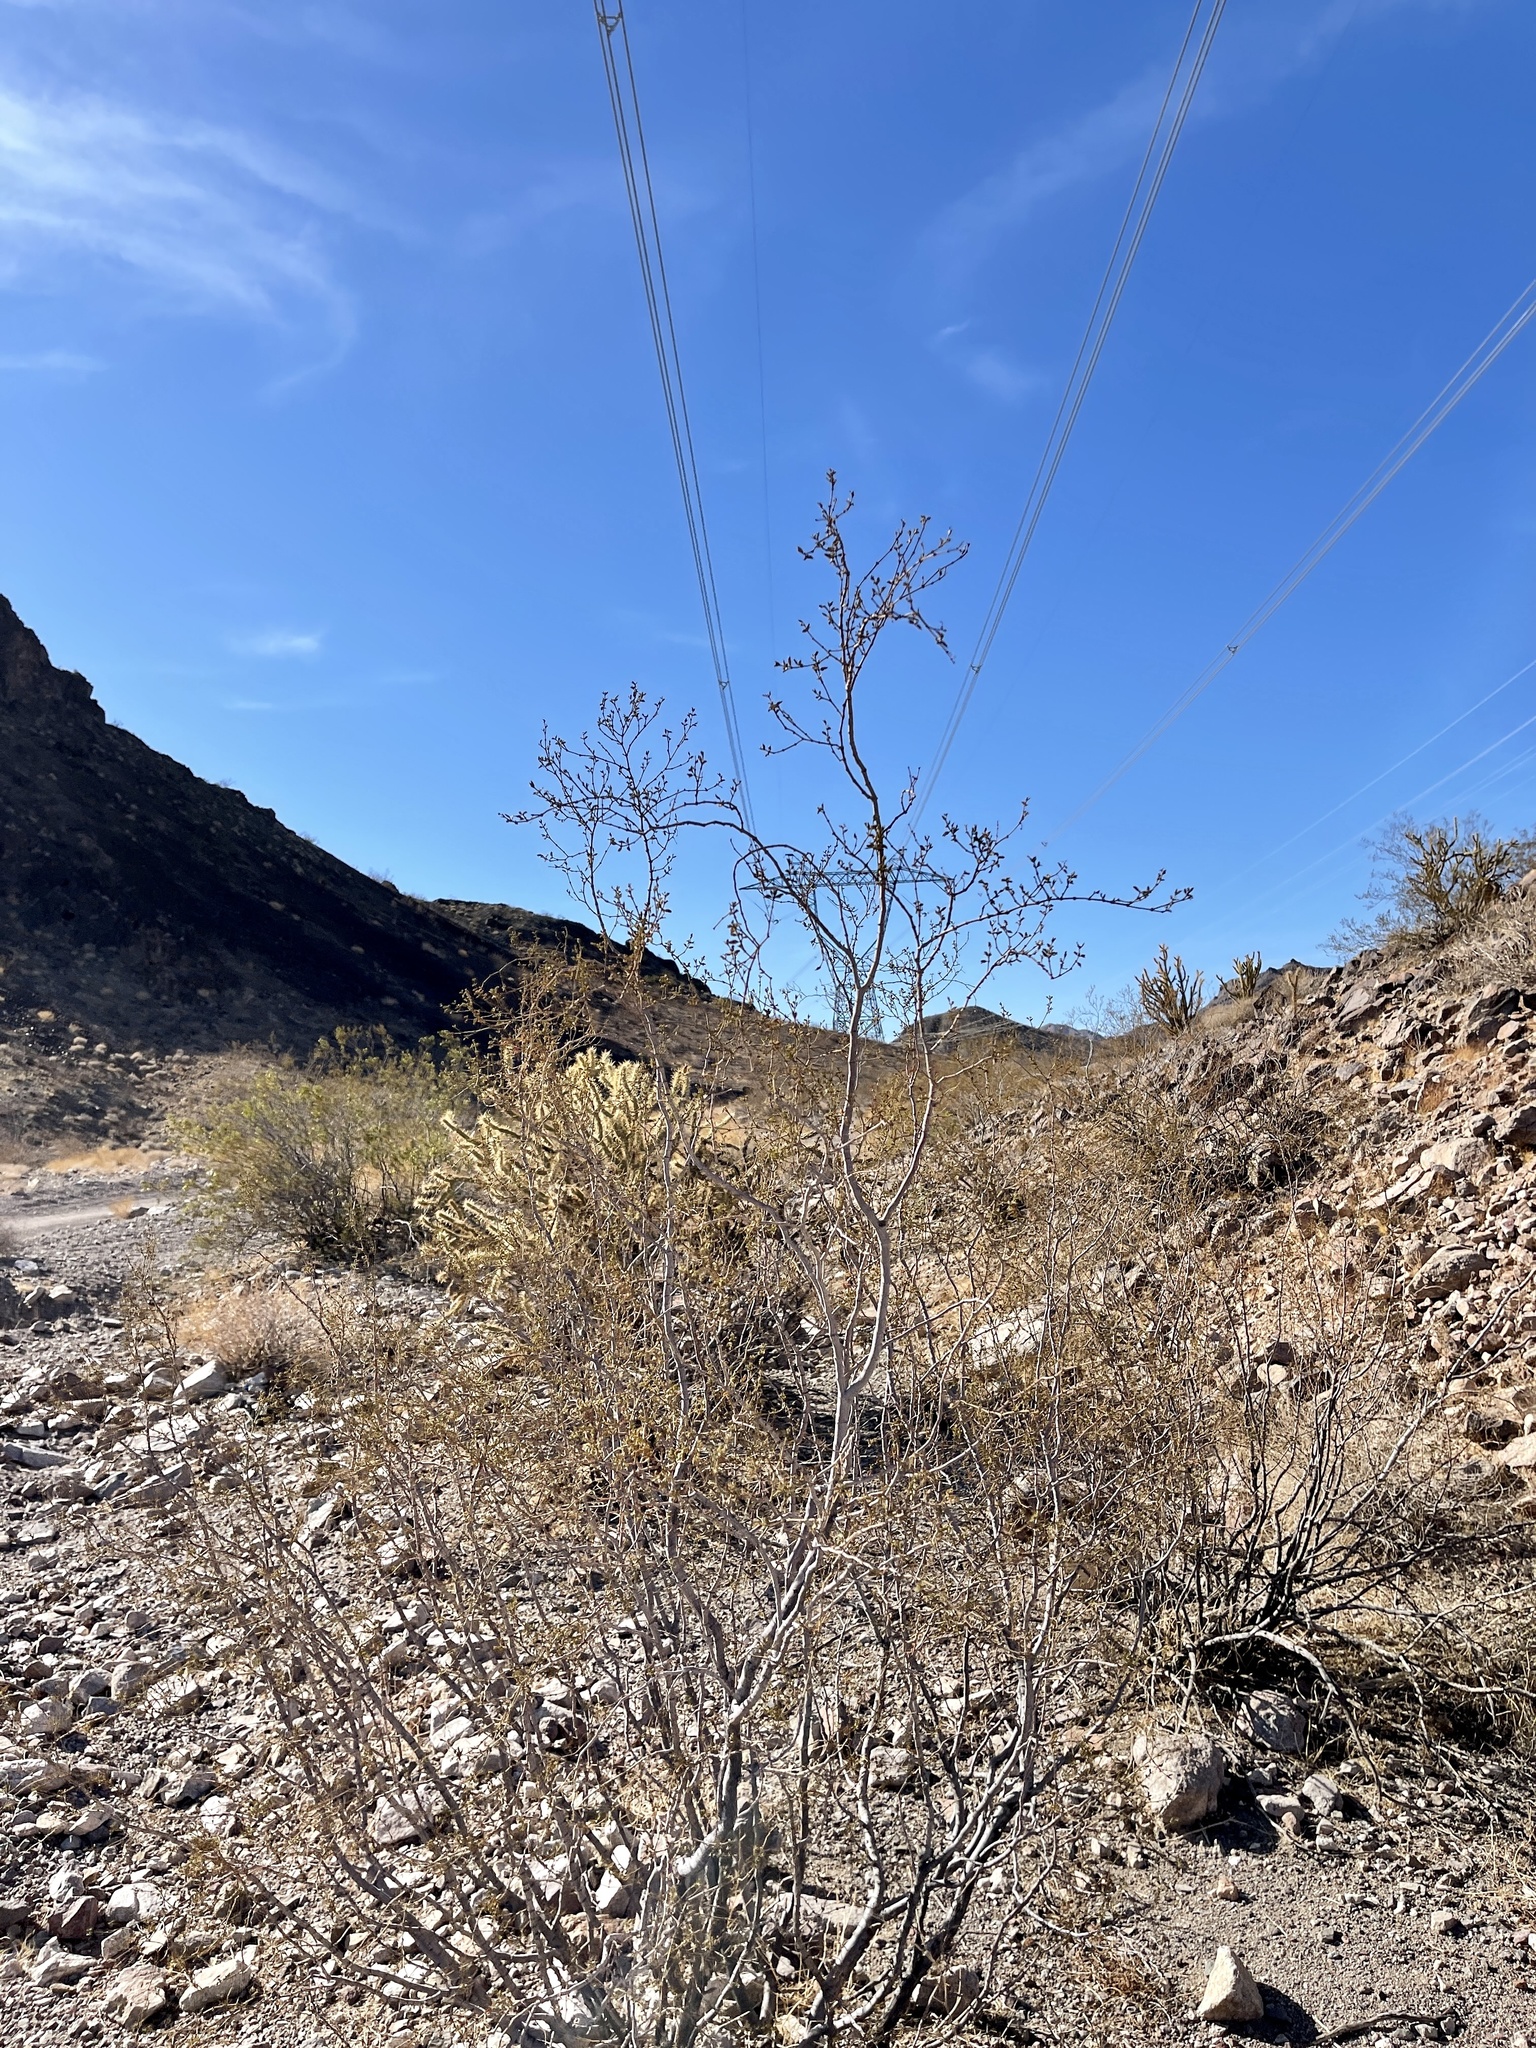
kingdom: Plantae
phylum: Tracheophyta
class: Magnoliopsida
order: Zygophyllales
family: Zygophyllaceae
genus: Larrea
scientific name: Larrea tridentata
